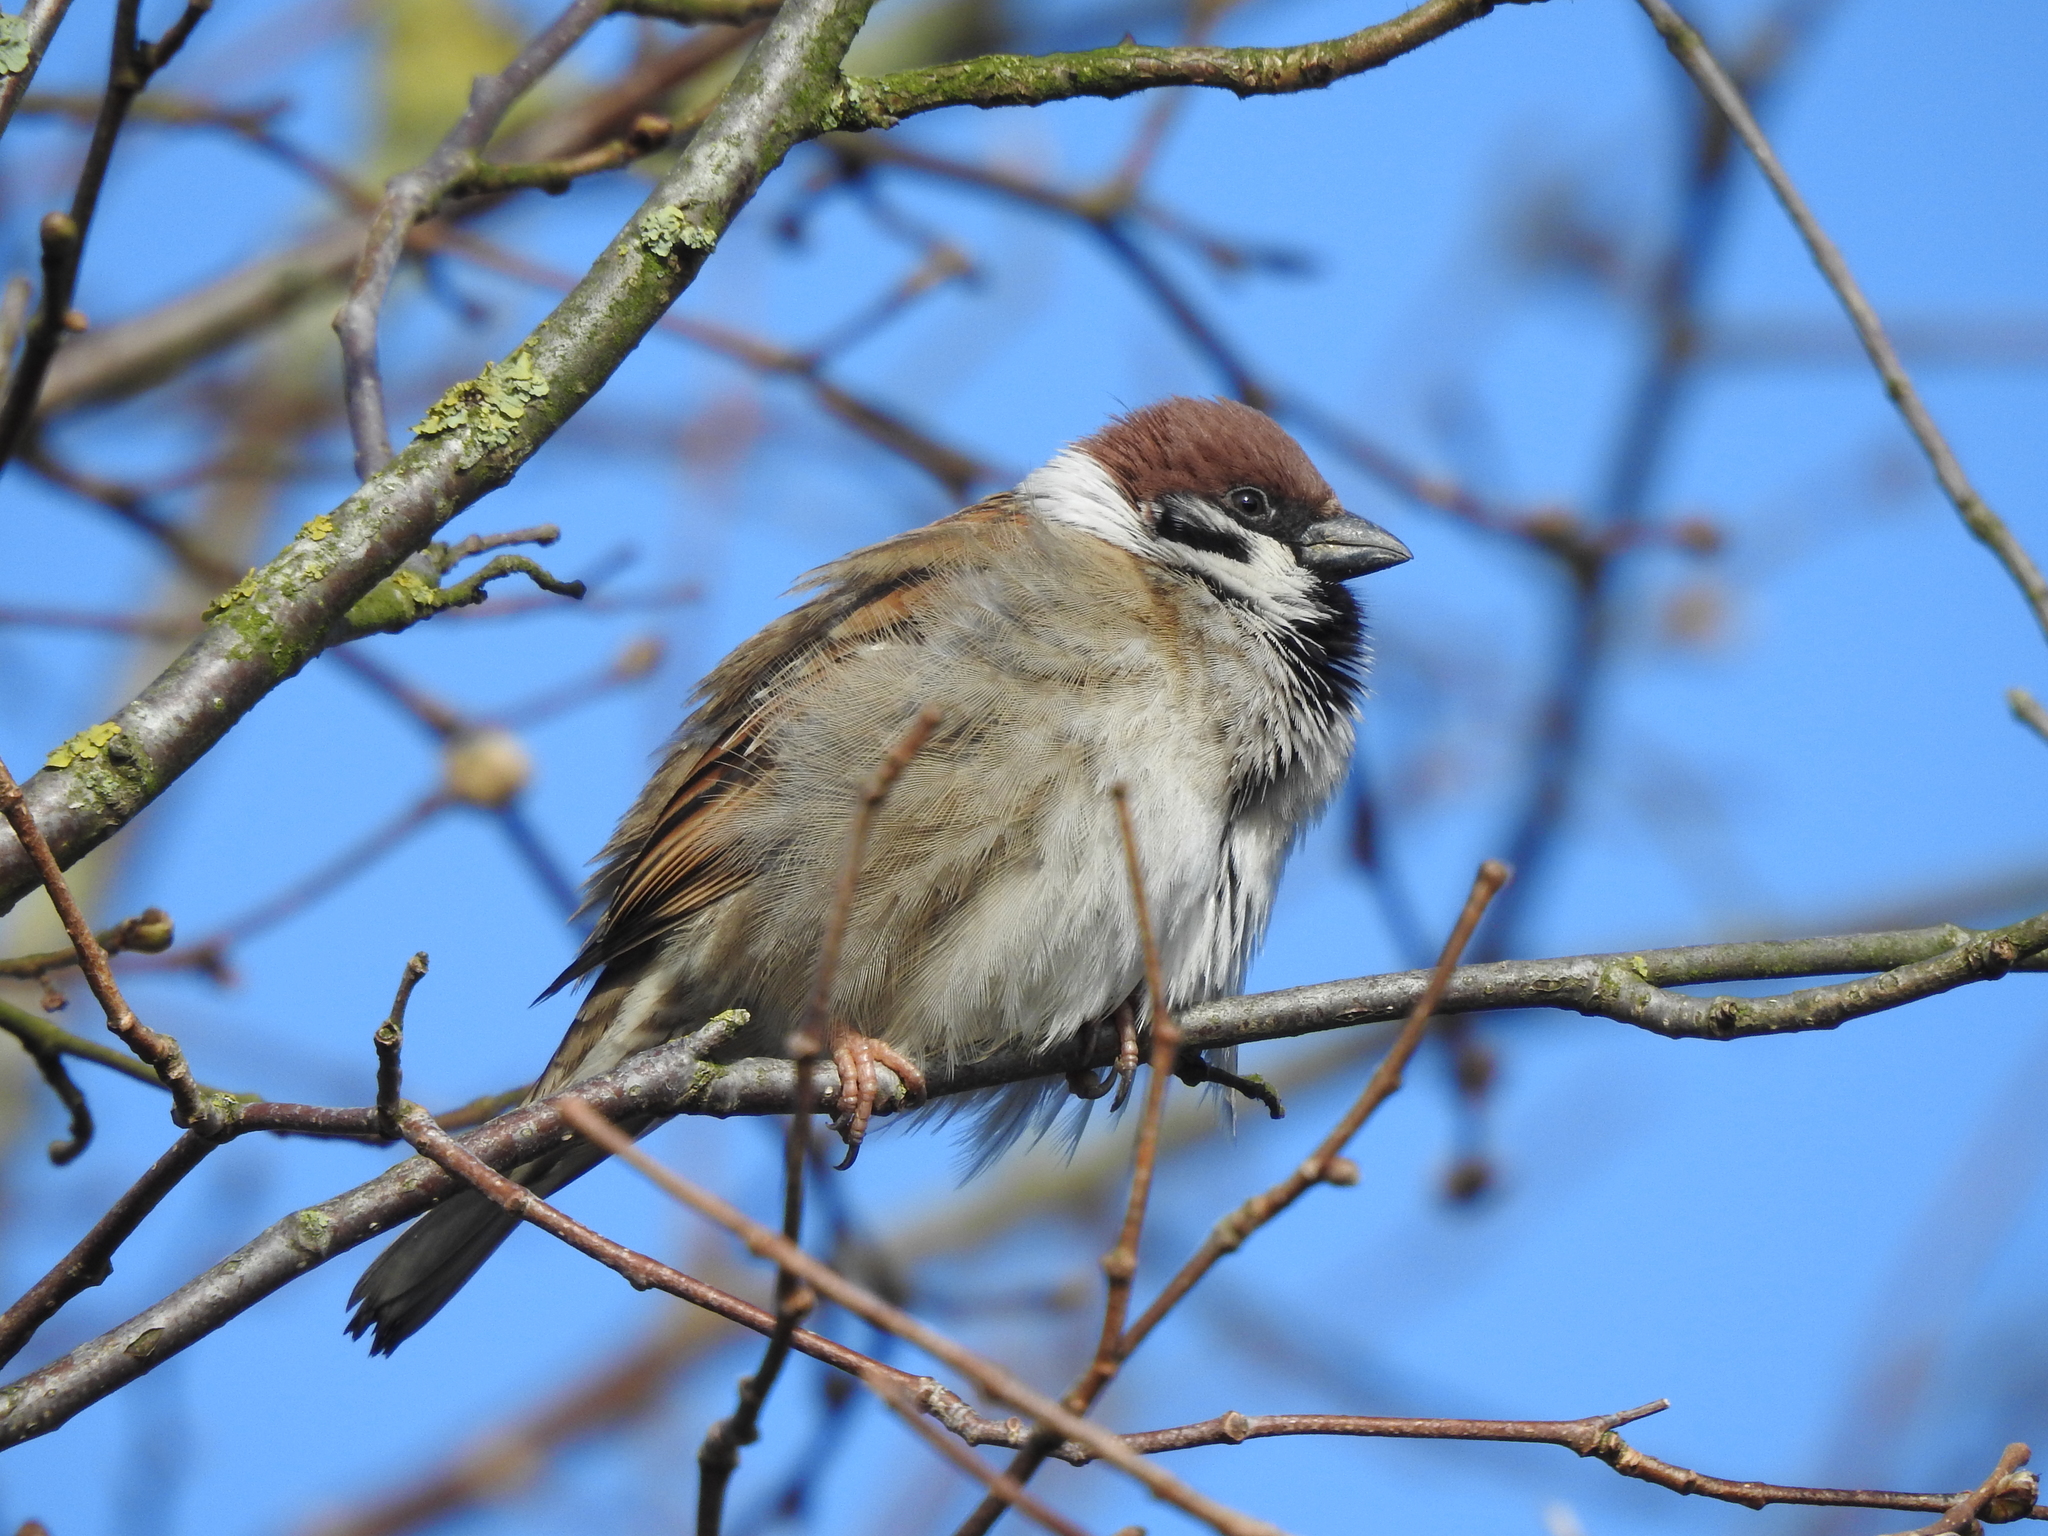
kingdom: Animalia
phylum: Chordata
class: Aves
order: Passeriformes
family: Passeridae
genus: Passer
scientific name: Passer montanus
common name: Eurasian tree sparrow
